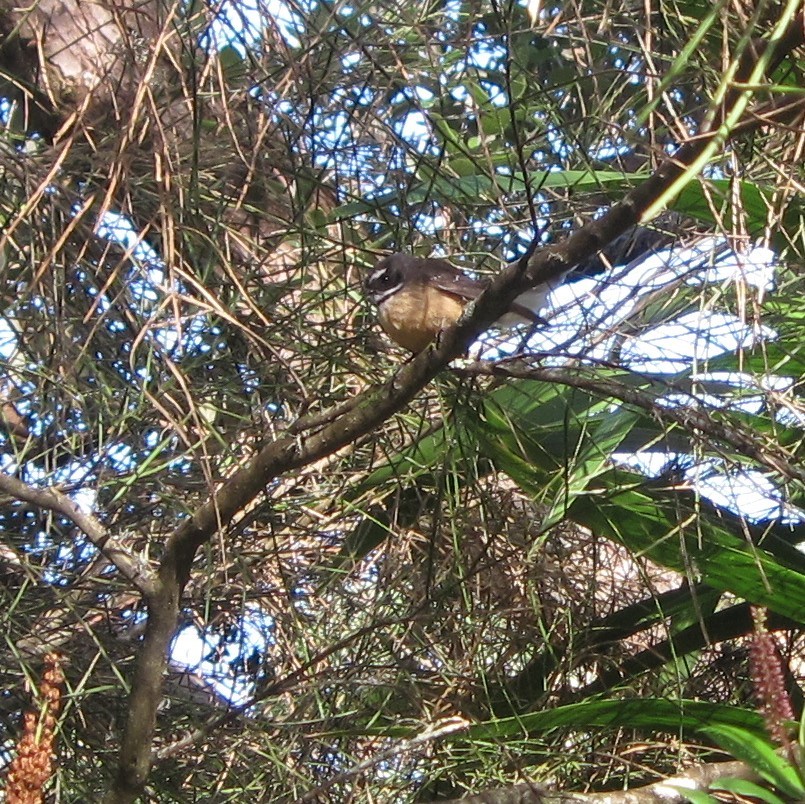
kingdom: Animalia
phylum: Chordata
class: Aves
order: Passeriformes
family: Rhipiduridae
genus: Rhipidura
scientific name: Rhipidura fuliginosa
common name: New zealand fantail
